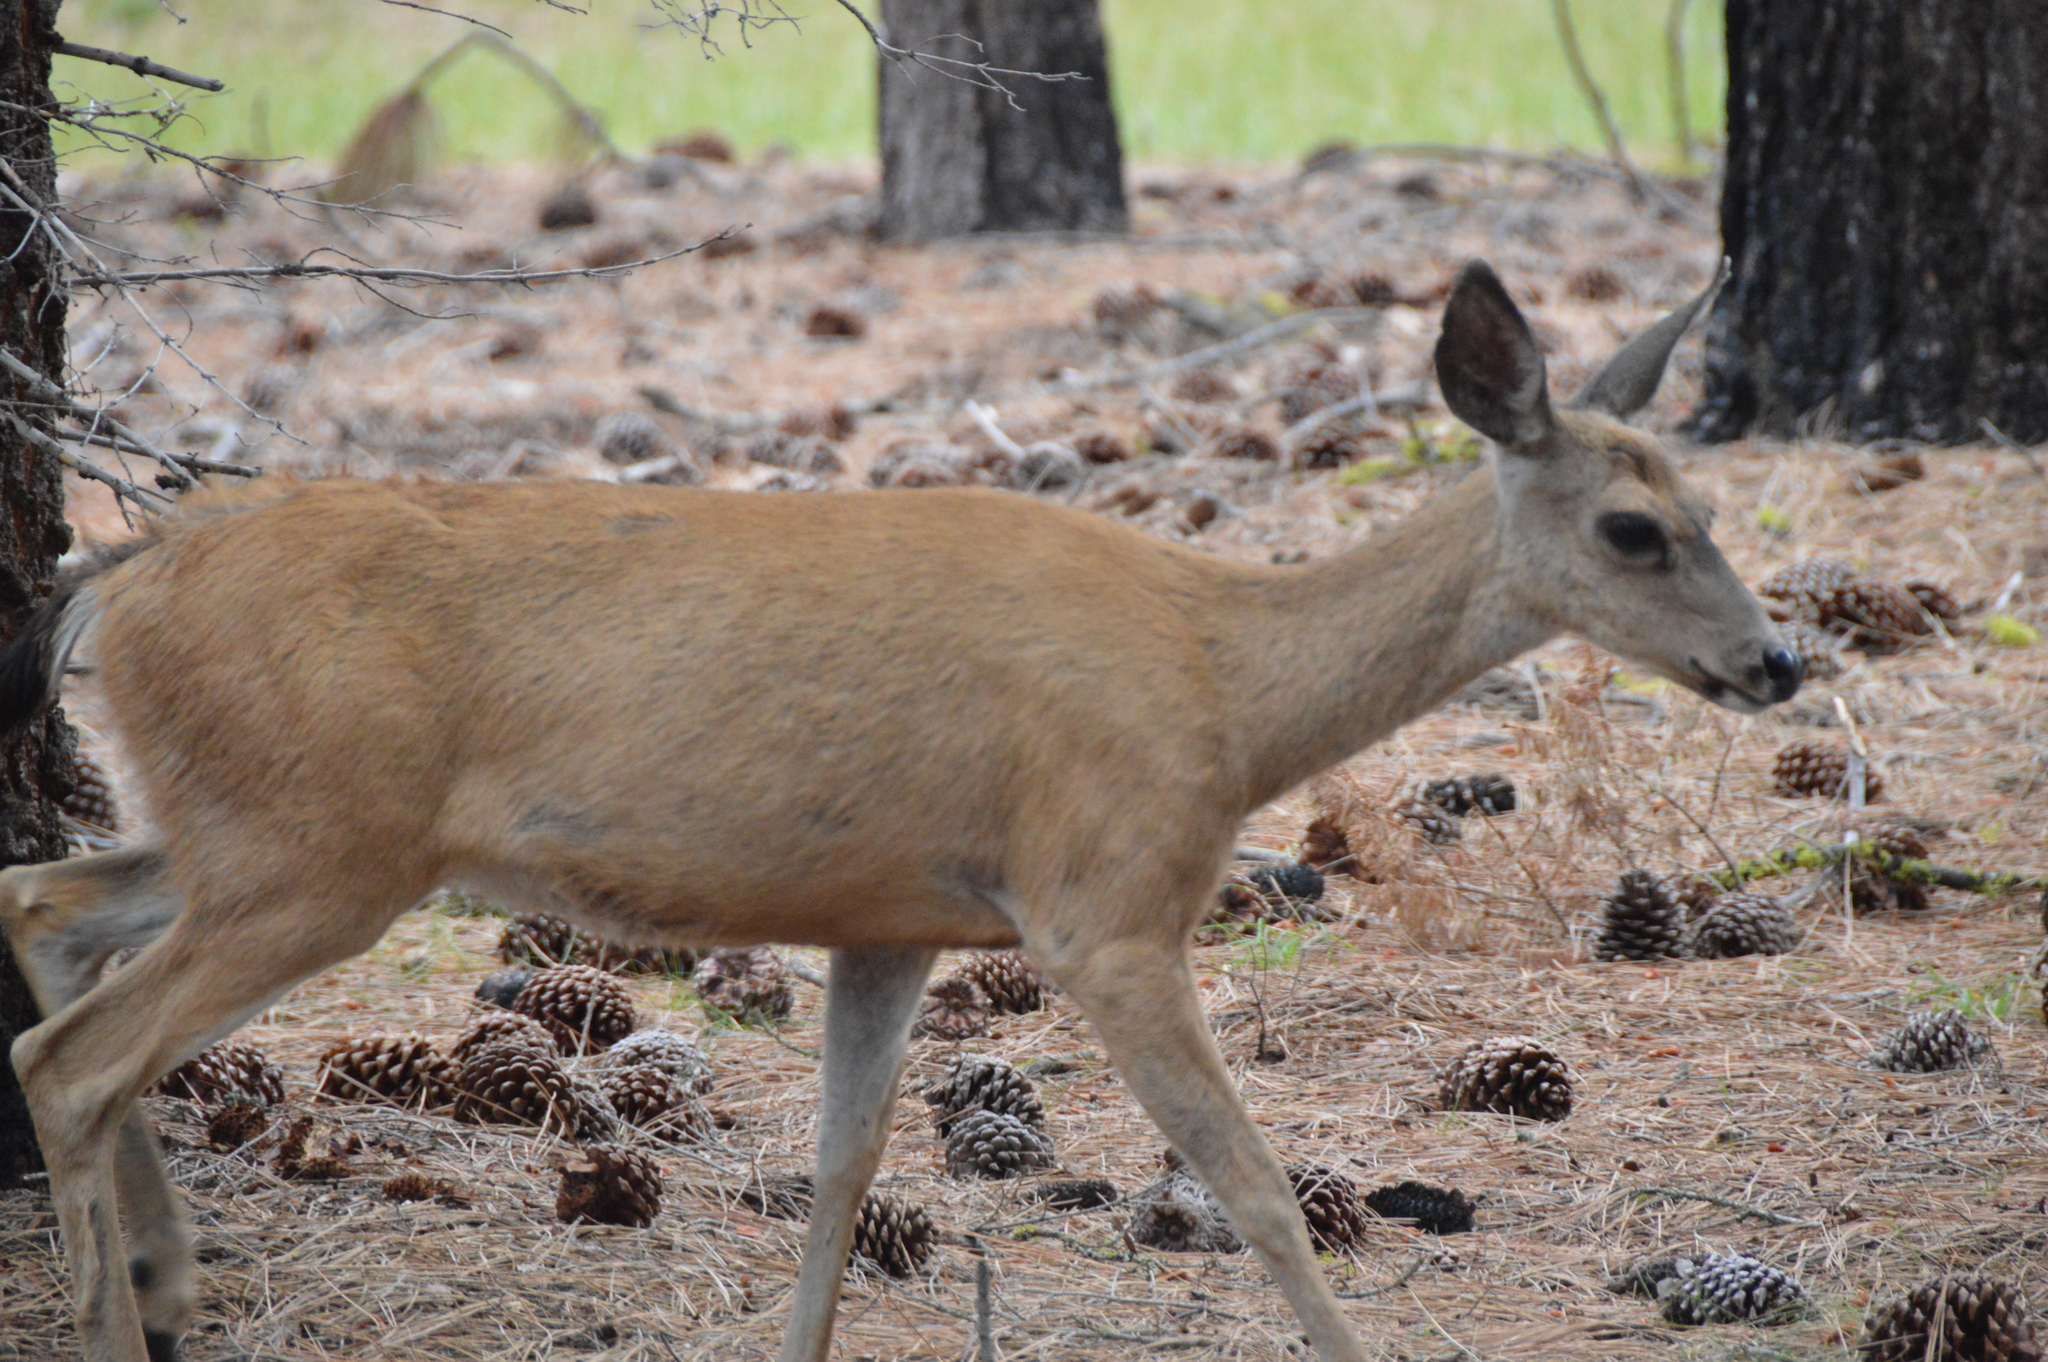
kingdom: Animalia
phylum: Chordata
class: Mammalia
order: Artiodactyla
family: Cervidae
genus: Odocoileus
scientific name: Odocoileus hemionus
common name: Mule deer
